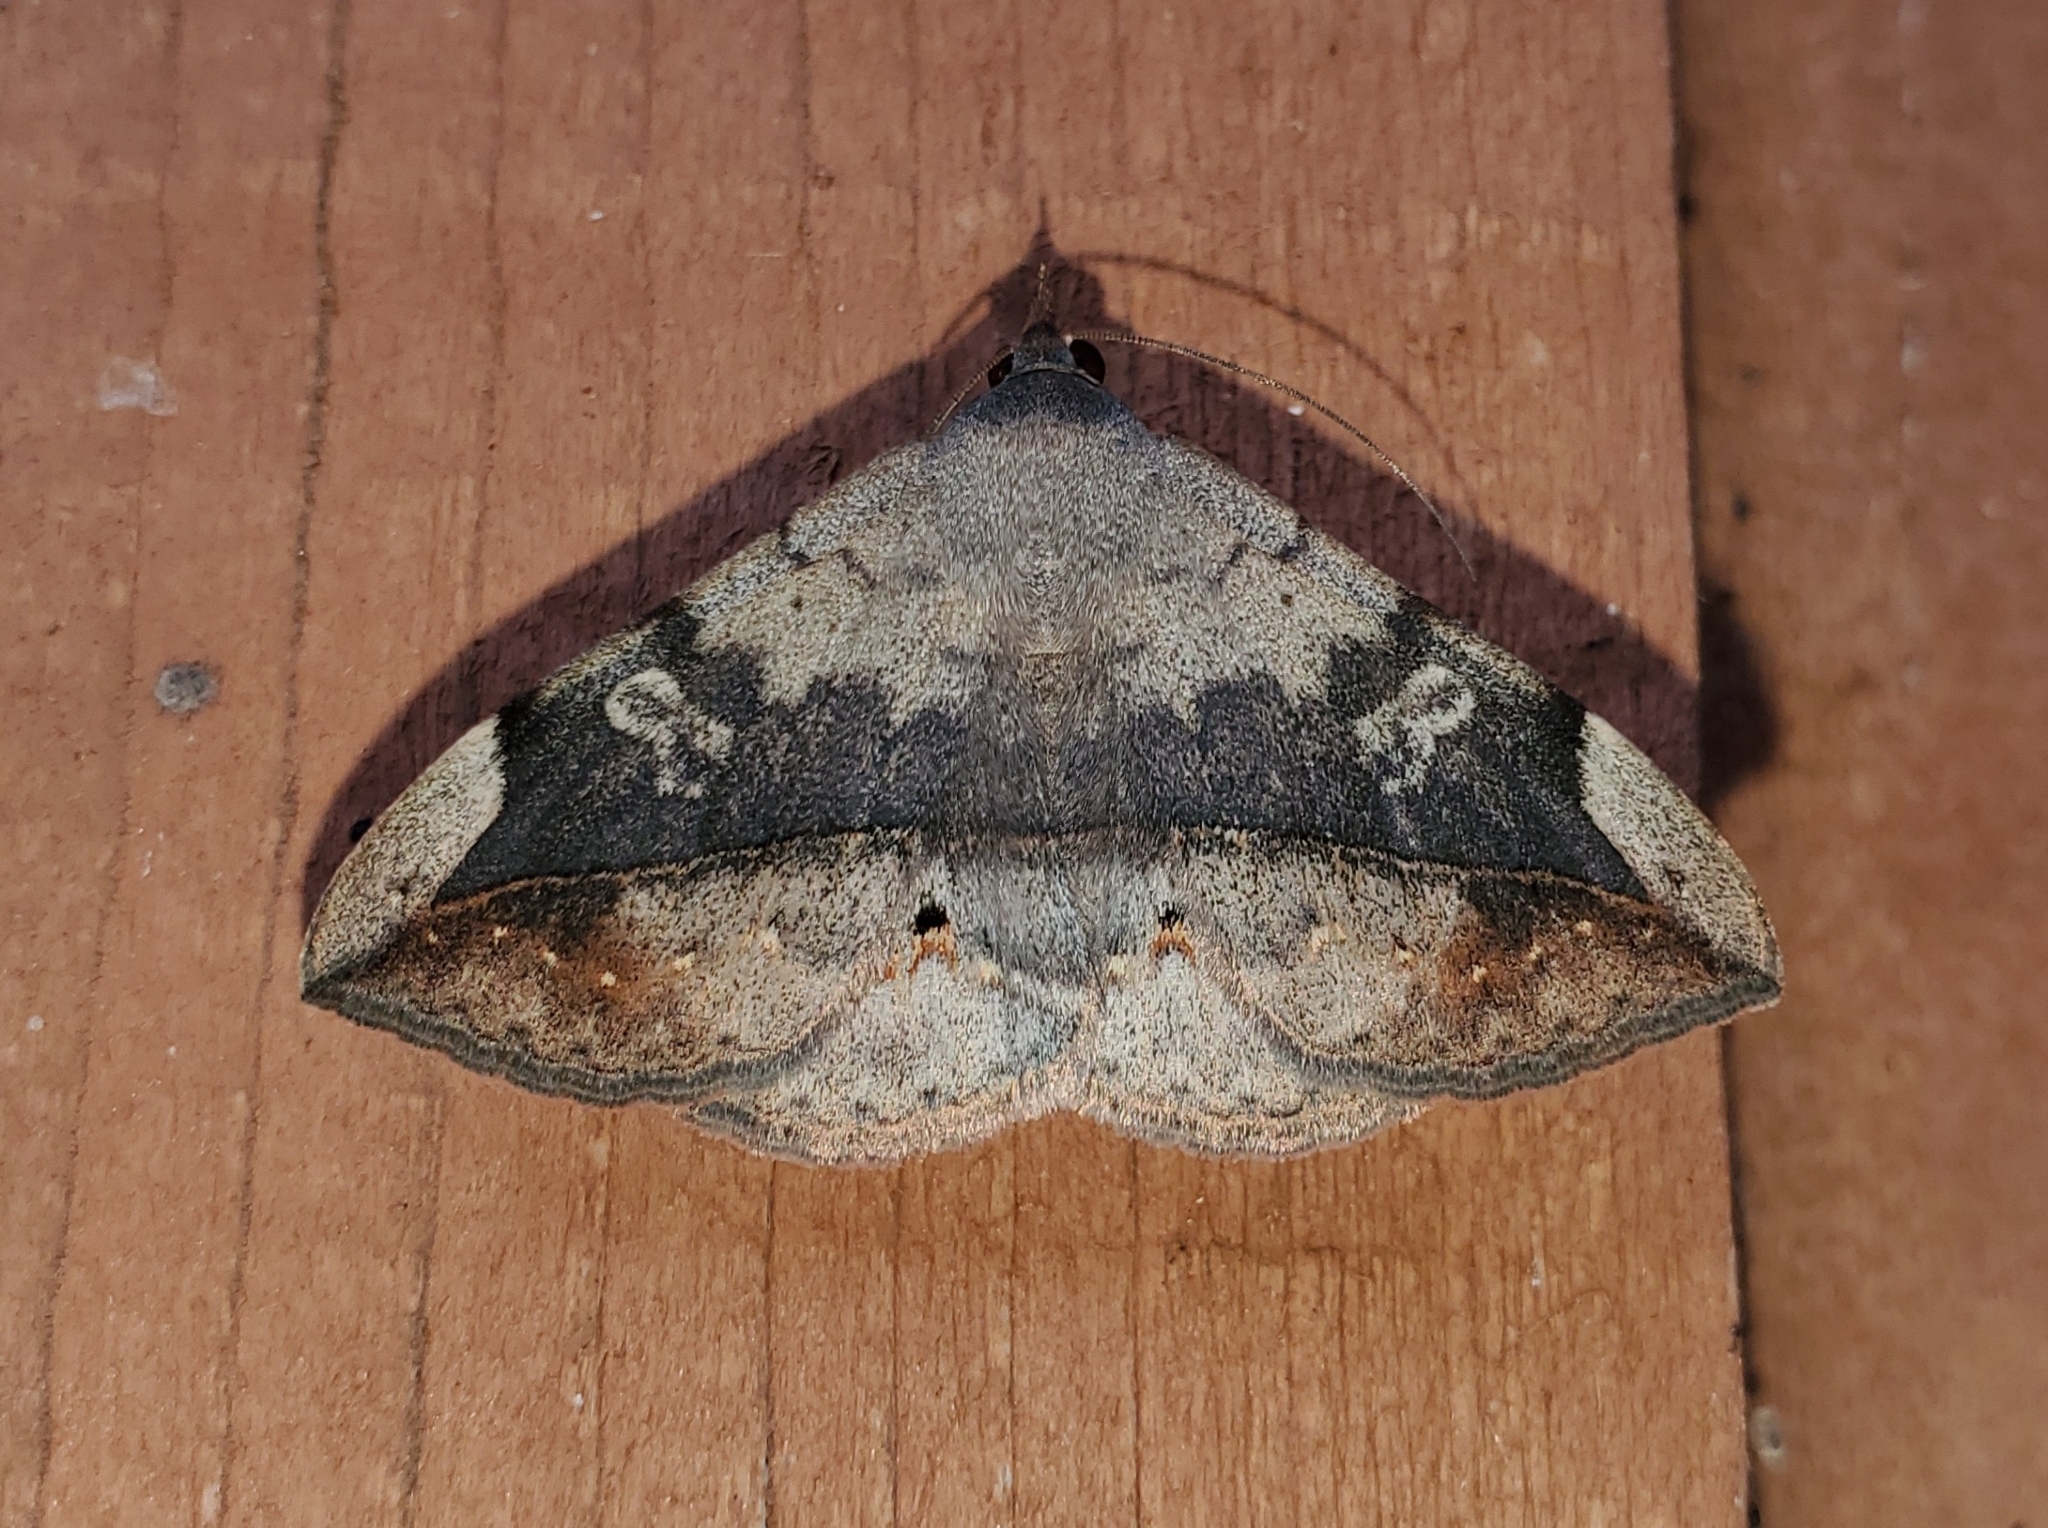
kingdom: Animalia
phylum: Arthropoda
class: Insecta
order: Lepidoptera
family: Erebidae
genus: Anticarsia
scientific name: Anticarsia gemmatalis
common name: Cutworm moth
